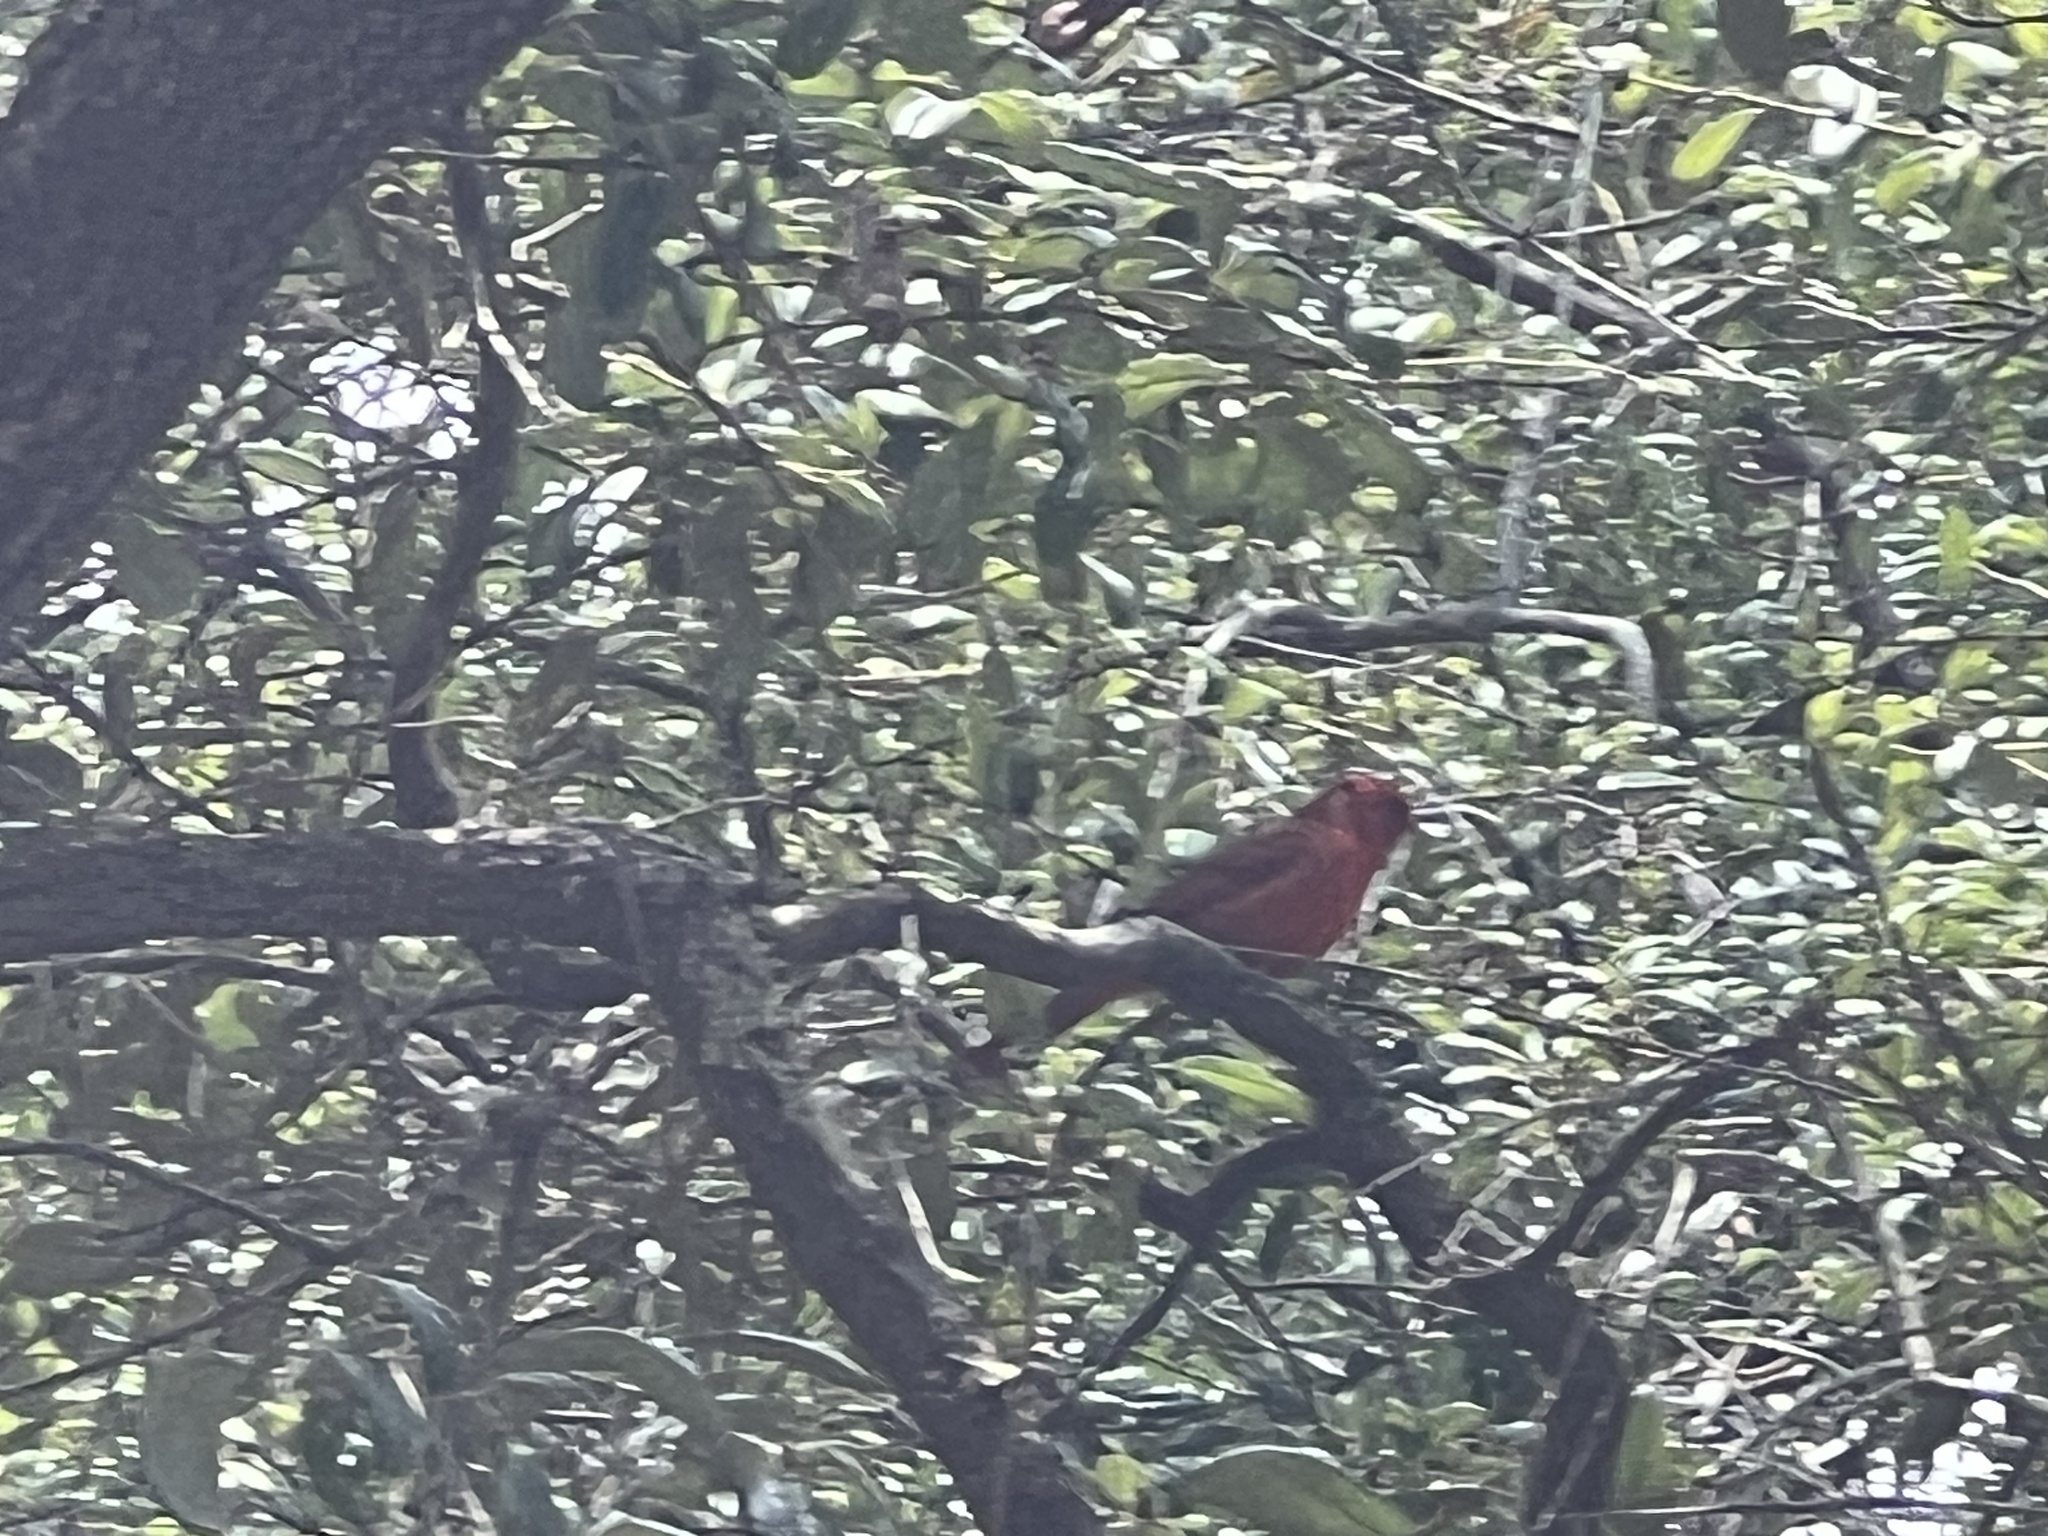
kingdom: Animalia
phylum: Chordata
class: Aves
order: Passeriformes
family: Cardinalidae
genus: Cardinalis
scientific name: Cardinalis cardinalis
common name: Northern cardinal
